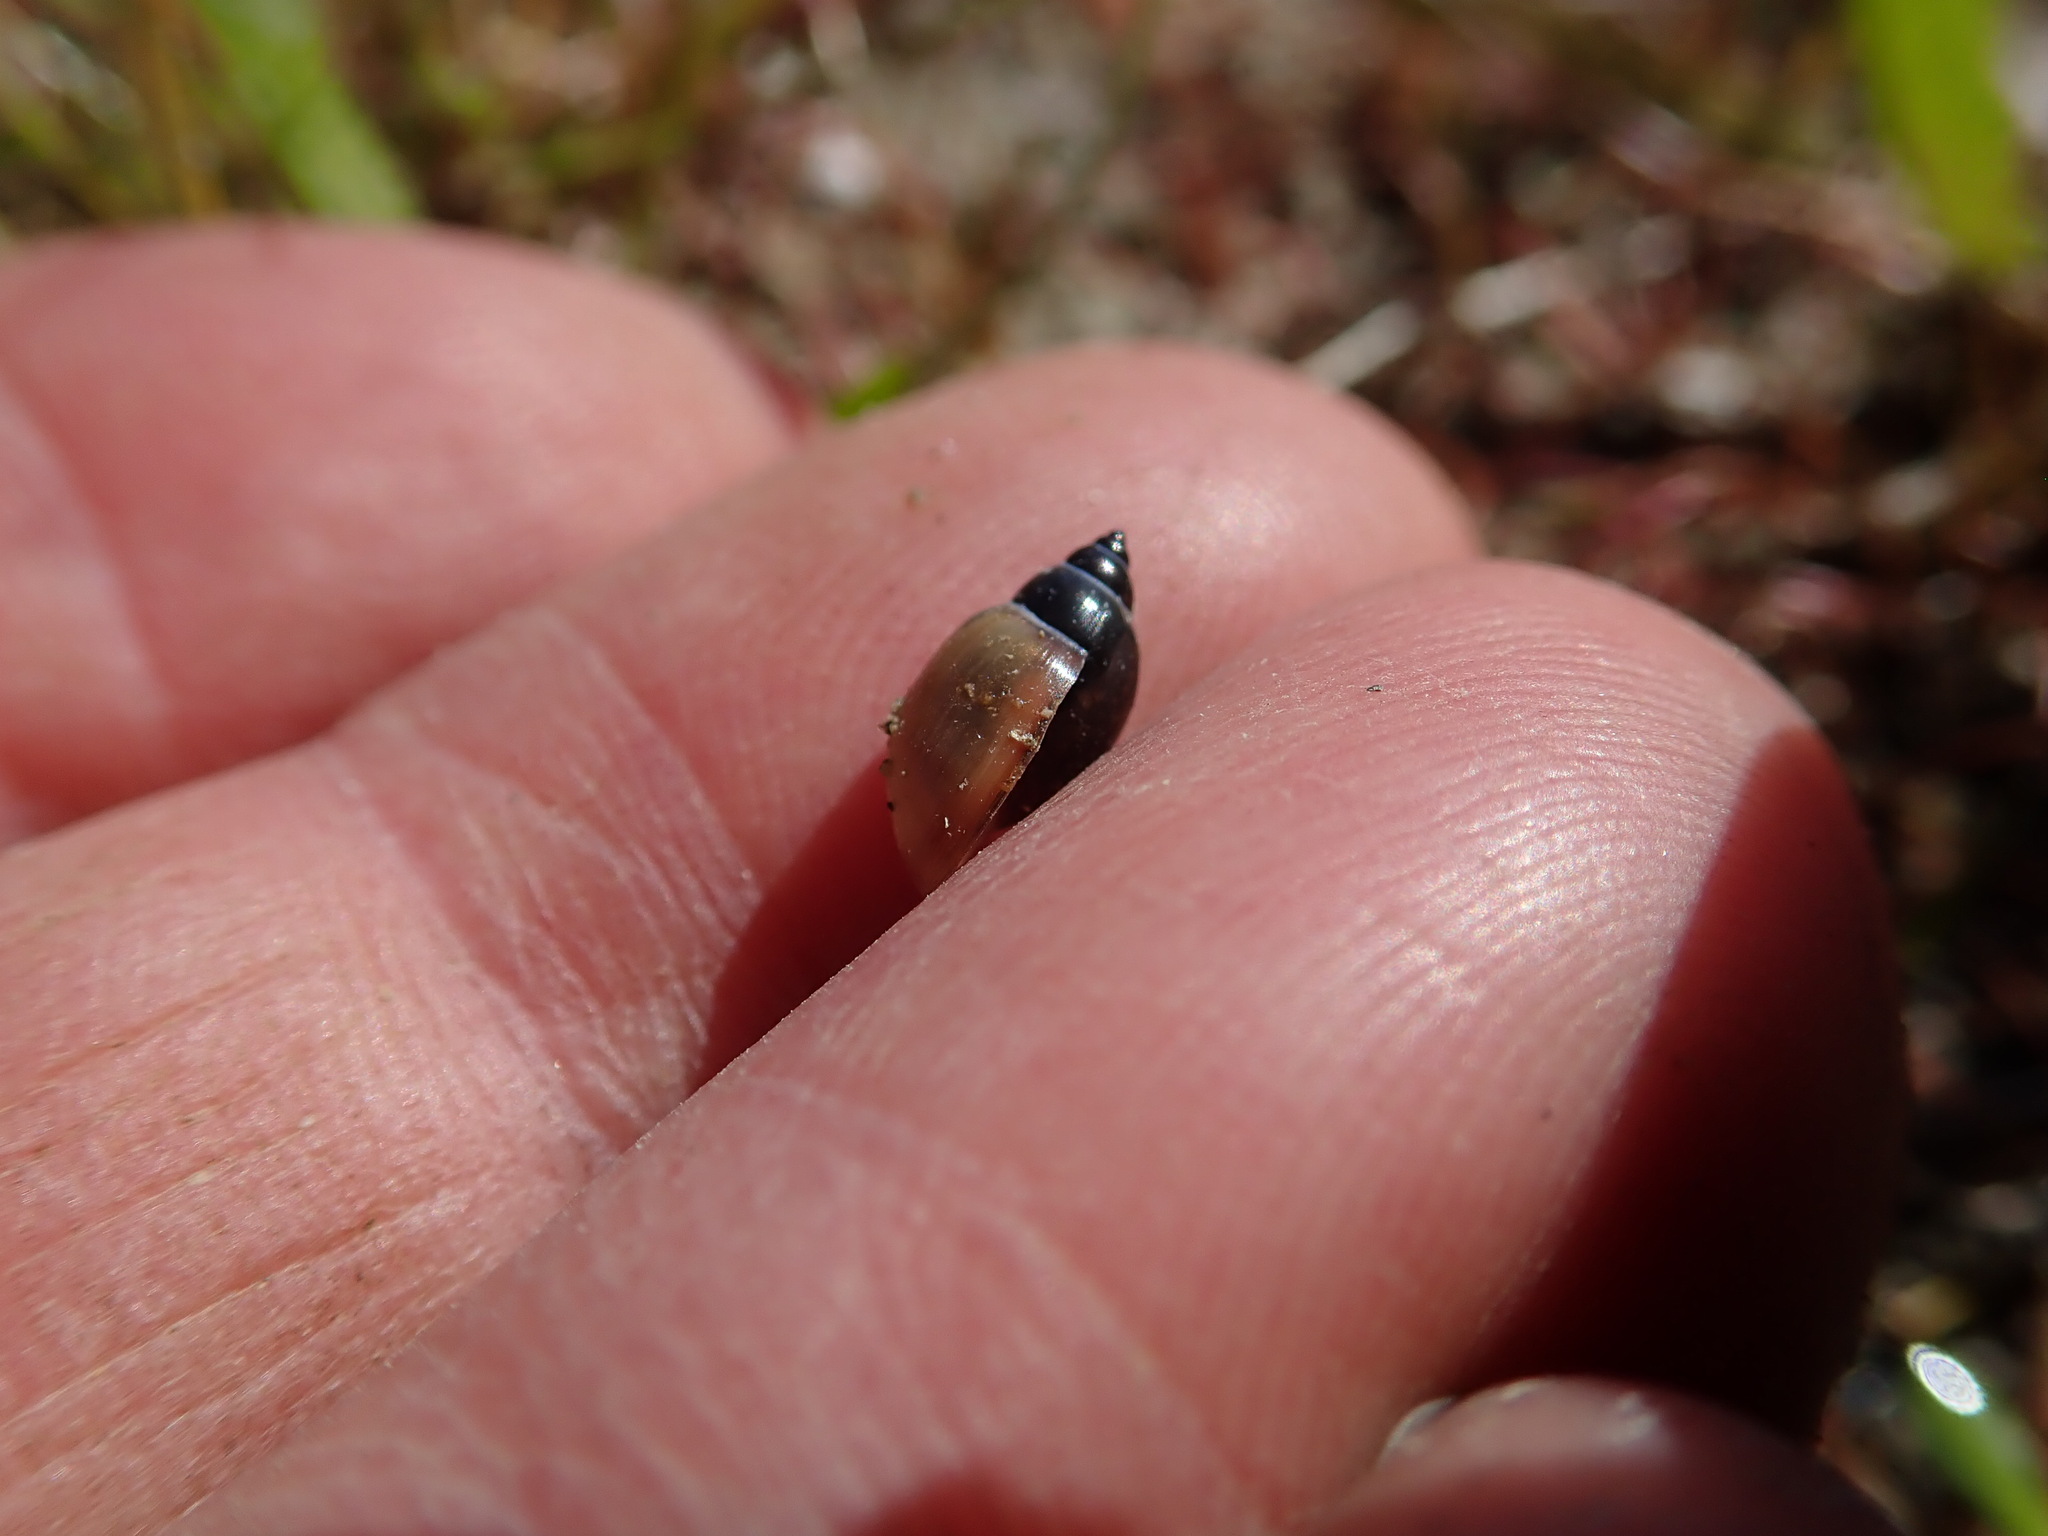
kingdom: Animalia
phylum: Mollusca
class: Gastropoda
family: Physidae
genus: Physella
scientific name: Physella acuta
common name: European physa
